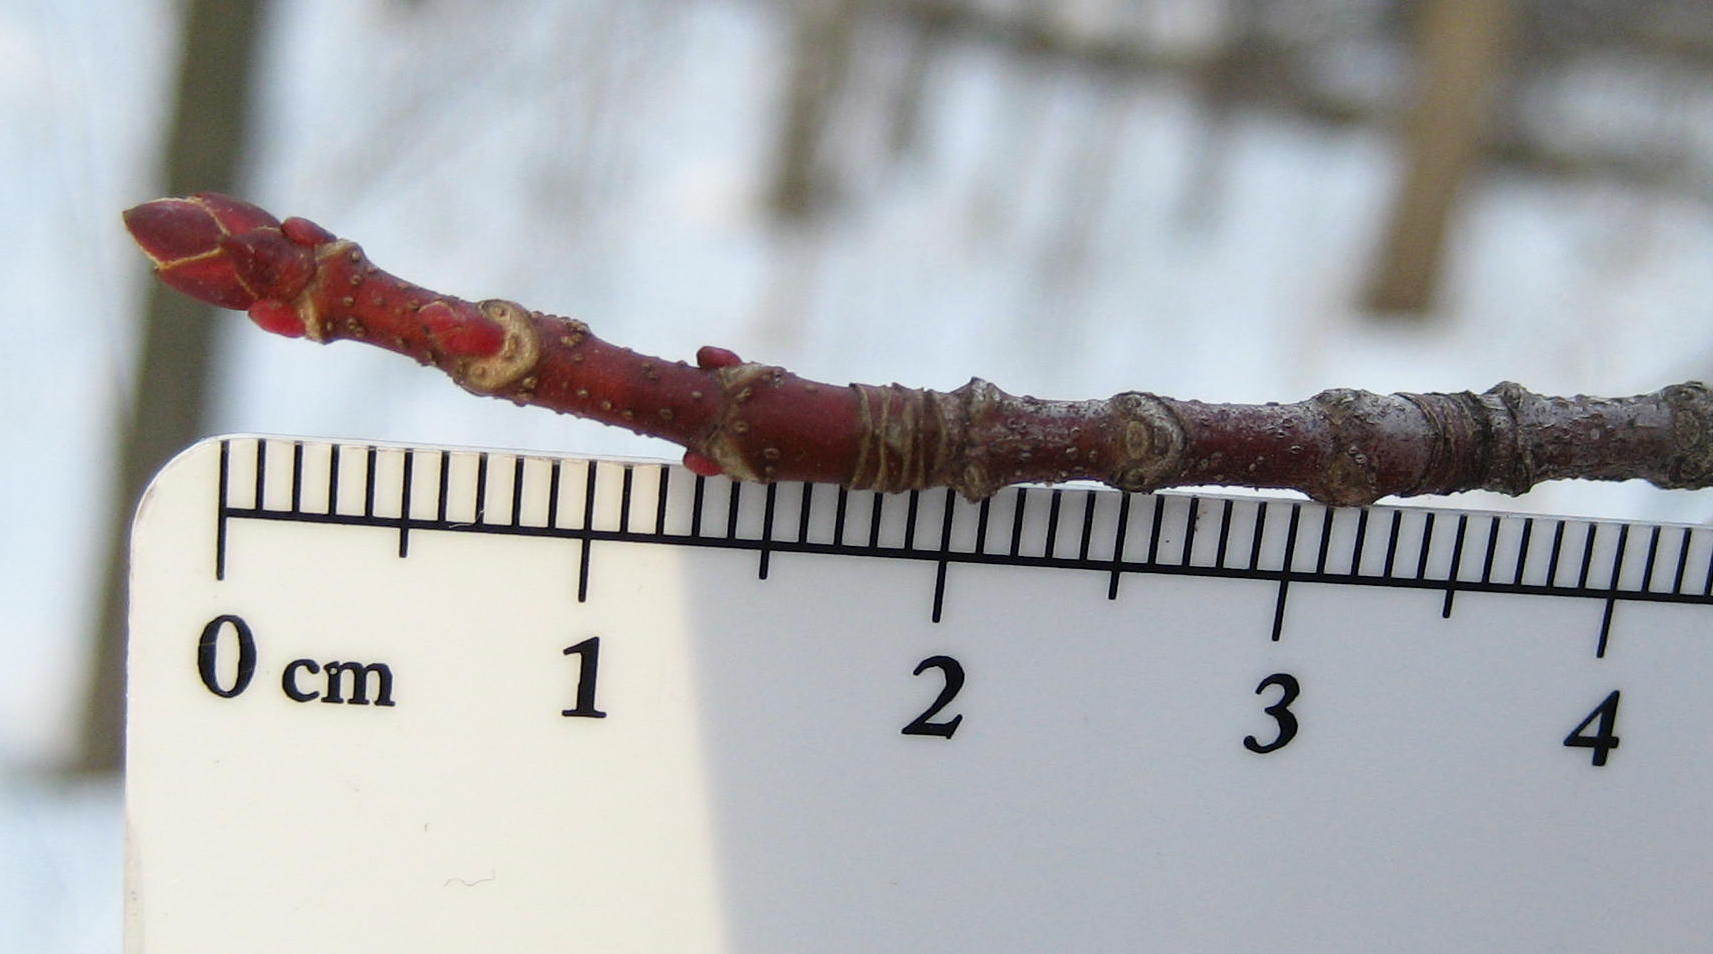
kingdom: Plantae
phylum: Tracheophyta
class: Magnoliopsida
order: Sapindales
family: Sapindaceae
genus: Acer
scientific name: Acer rubrum
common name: Red maple
